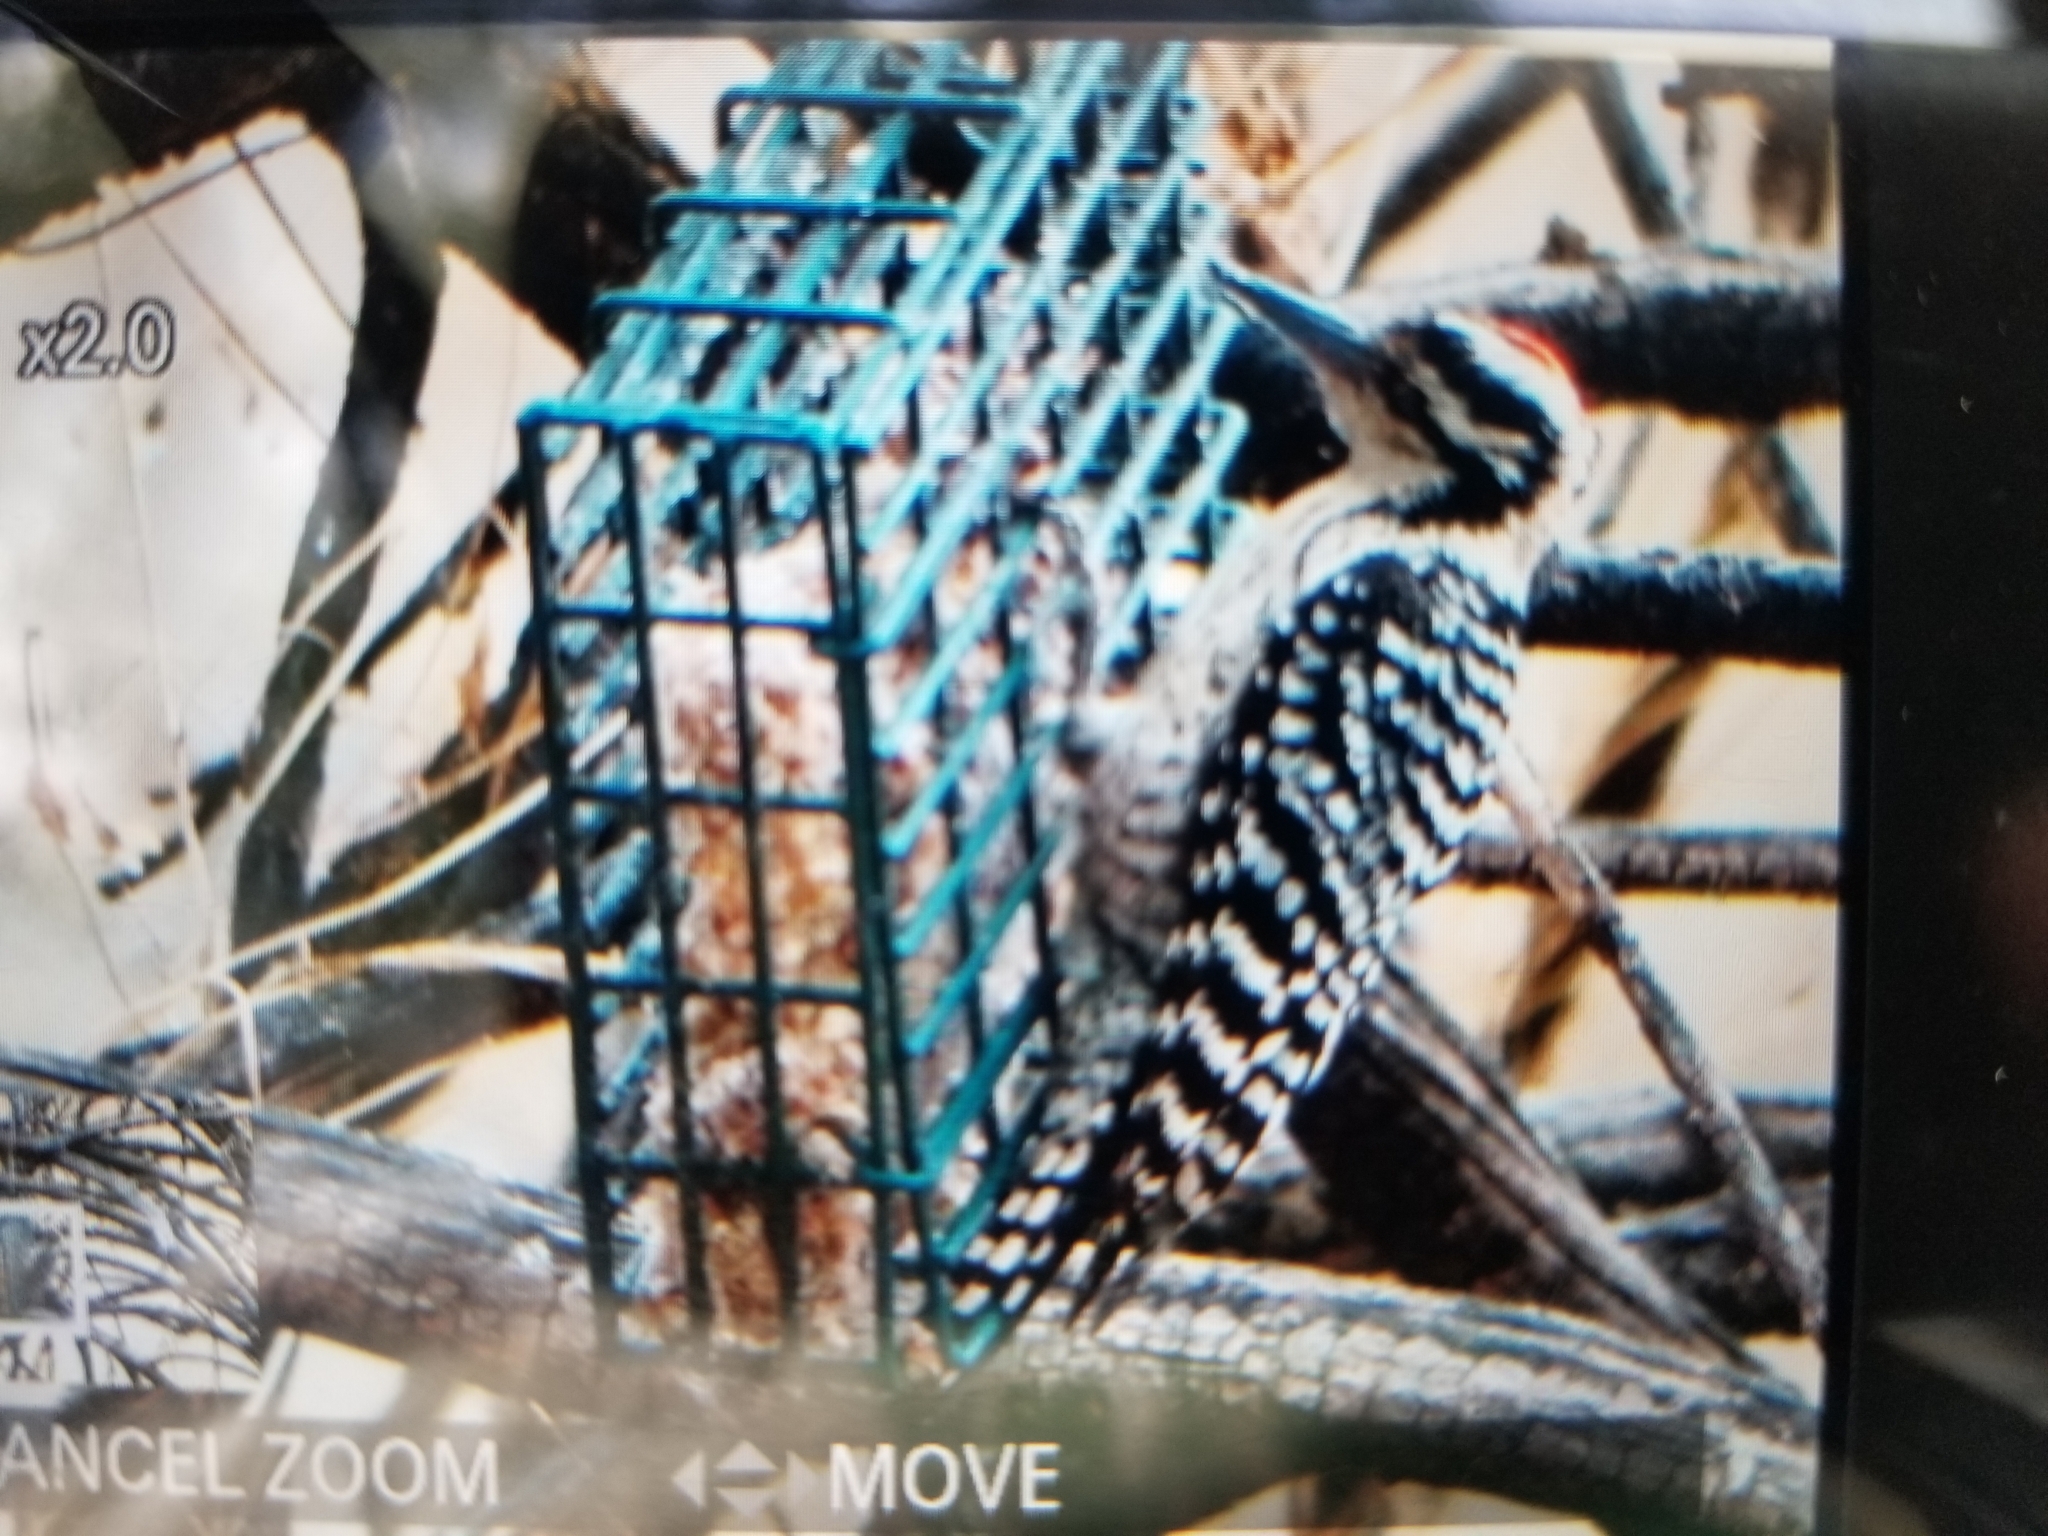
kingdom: Animalia
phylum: Chordata
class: Aves
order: Piciformes
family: Picidae
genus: Dryobates
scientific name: Dryobates scalaris
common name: Ladder-backed woodpecker
